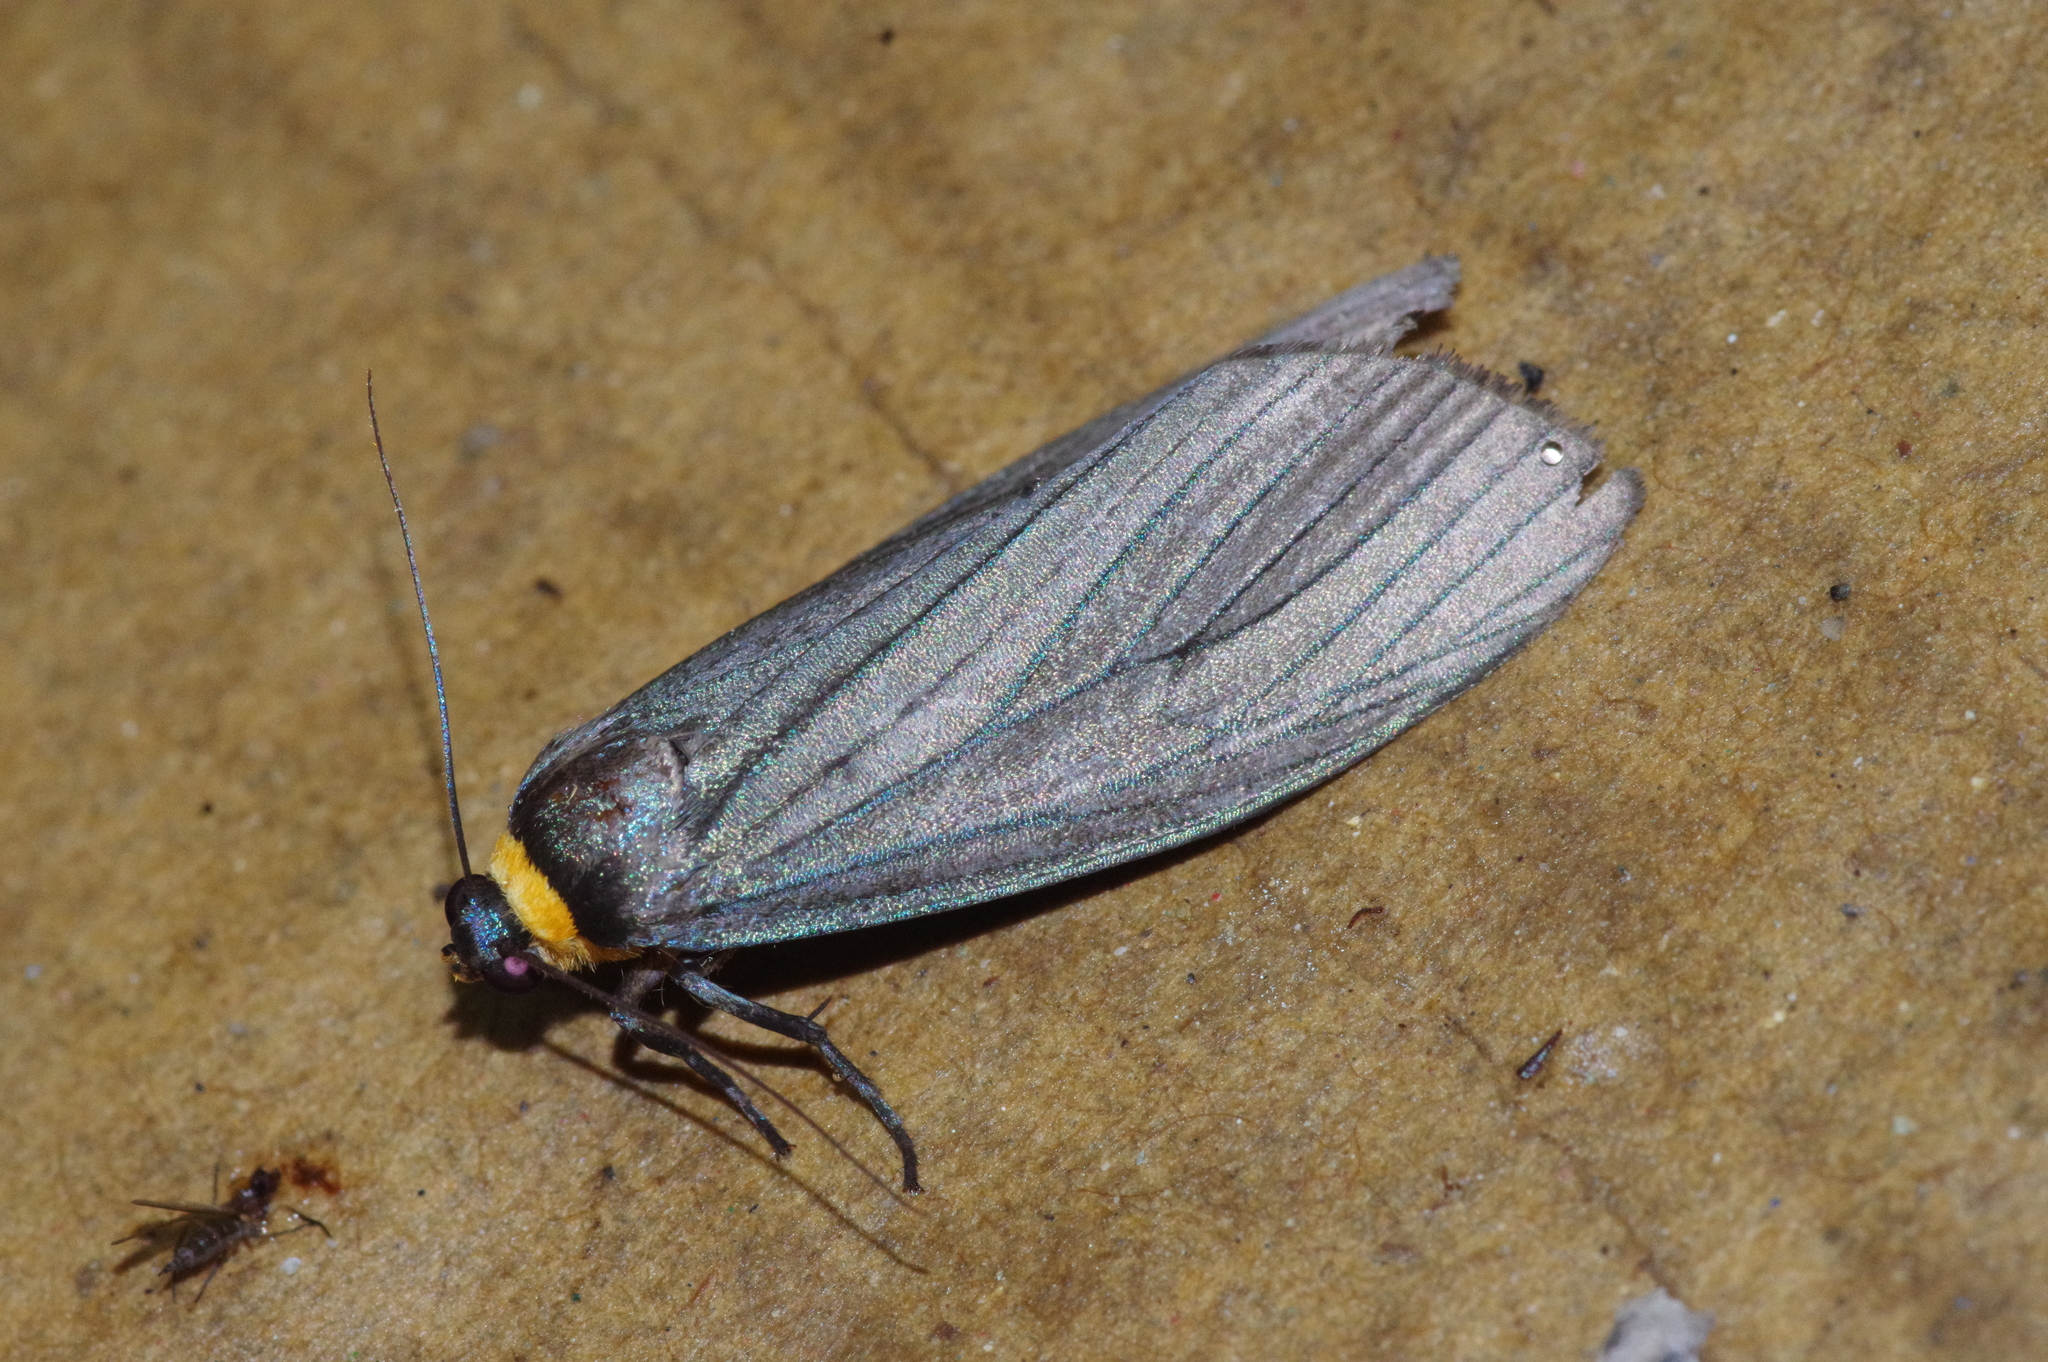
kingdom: Animalia
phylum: Arthropoda
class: Insecta
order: Lepidoptera
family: Erebidae
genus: Macrobrochis
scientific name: Macrobrochis staudingeri
